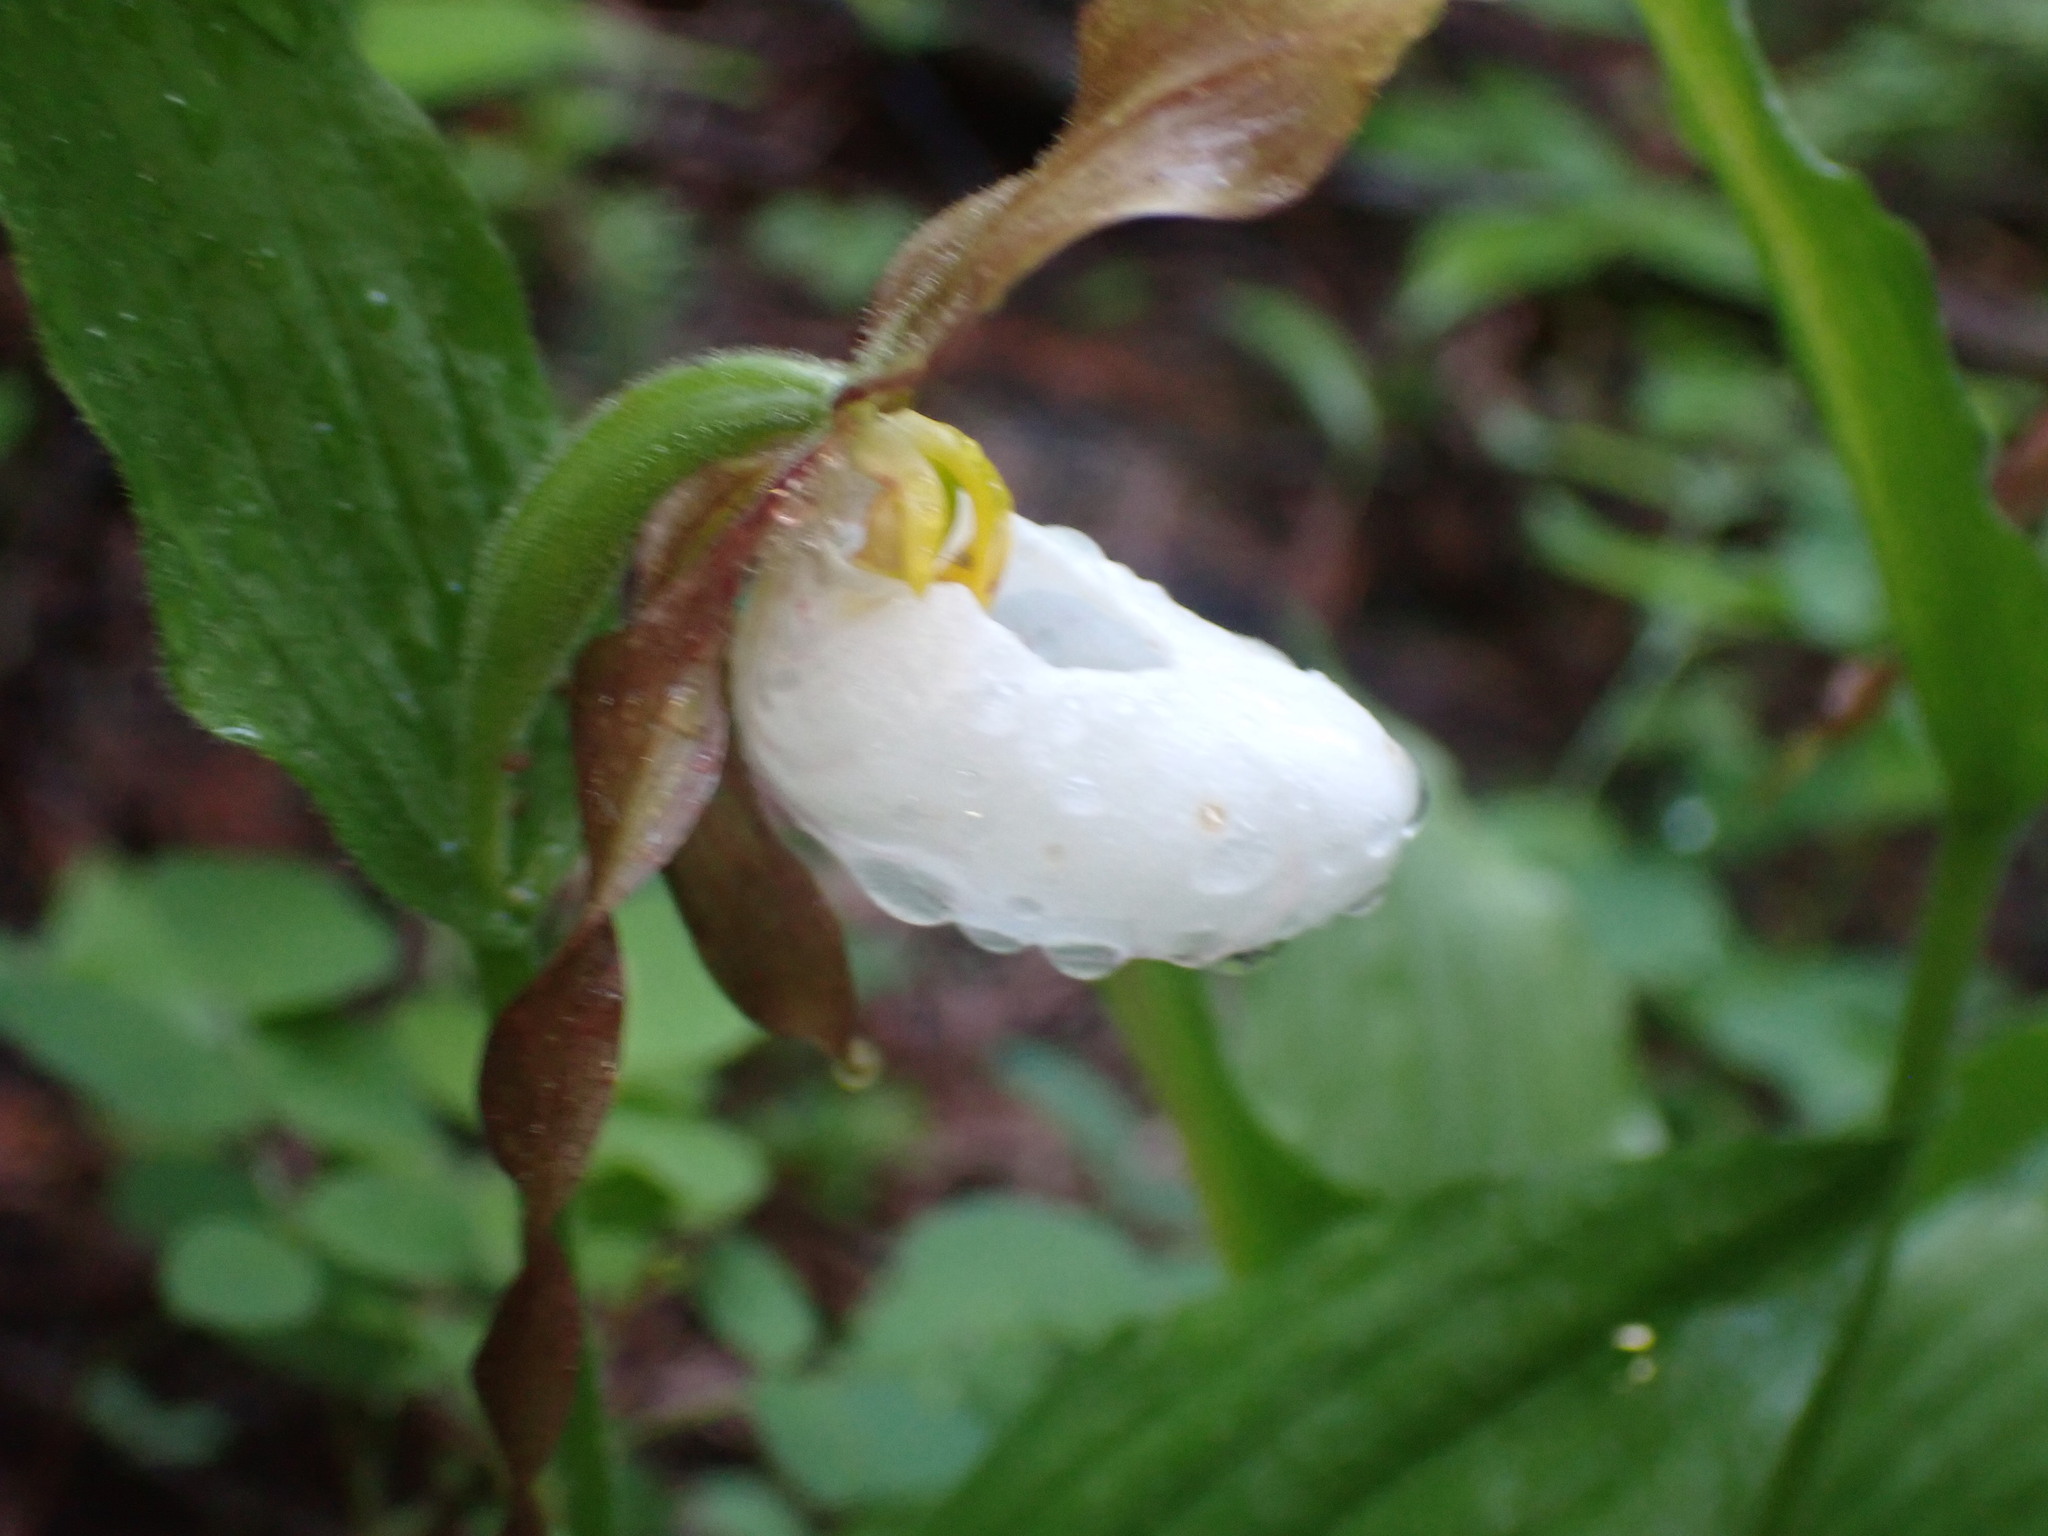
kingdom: Plantae
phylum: Tracheophyta
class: Liliopsida
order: Asparagales
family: Orchidaceae
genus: Cypripedium
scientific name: Cypripedium montanum
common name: Mountain lady's-slipper
